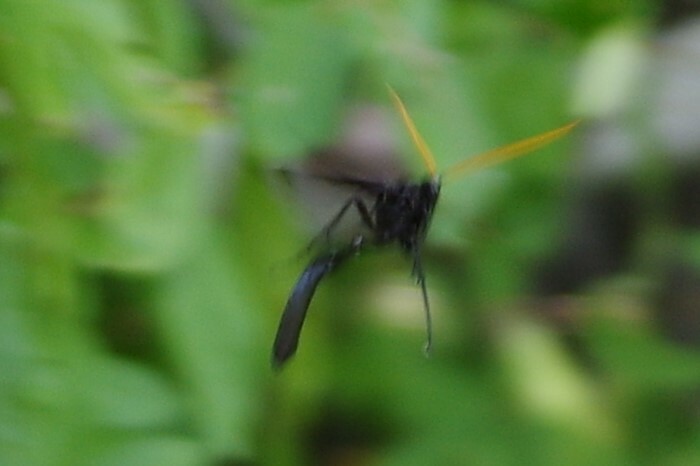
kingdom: Animalia
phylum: Arthropoda
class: Insecta
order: Hymenoptera
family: Ichneumonidae
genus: Thyreodon
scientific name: Thyreodon atricolor
